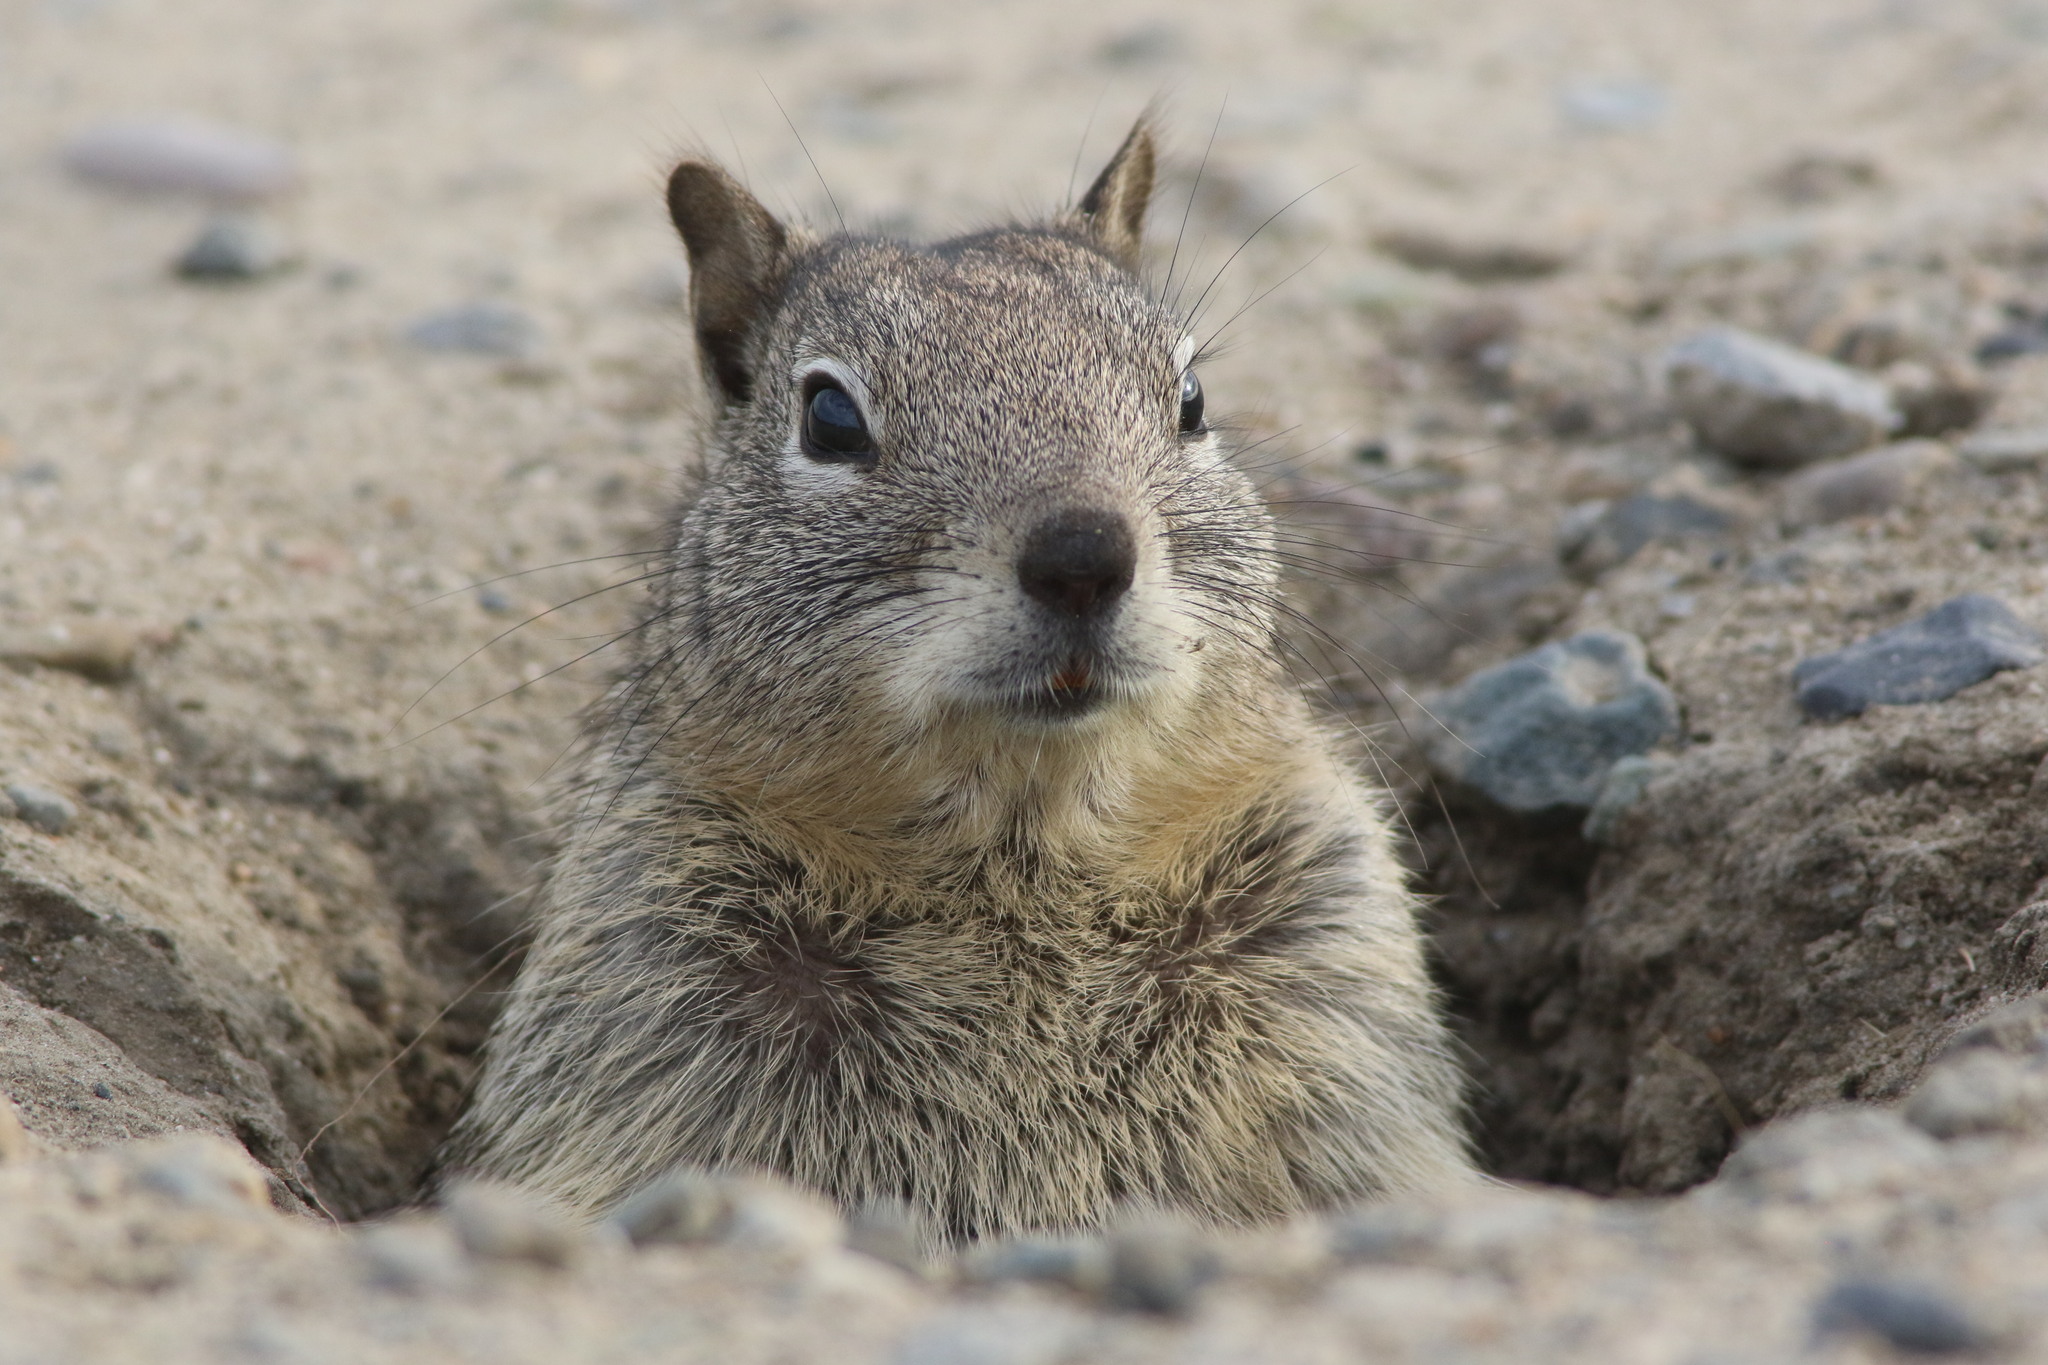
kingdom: Animalia
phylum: Chordata
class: Mammalia
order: Rodentia
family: Sciuridae
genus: Otospermophilus
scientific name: Otospermophilus beecheyi
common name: California ground squirrel
